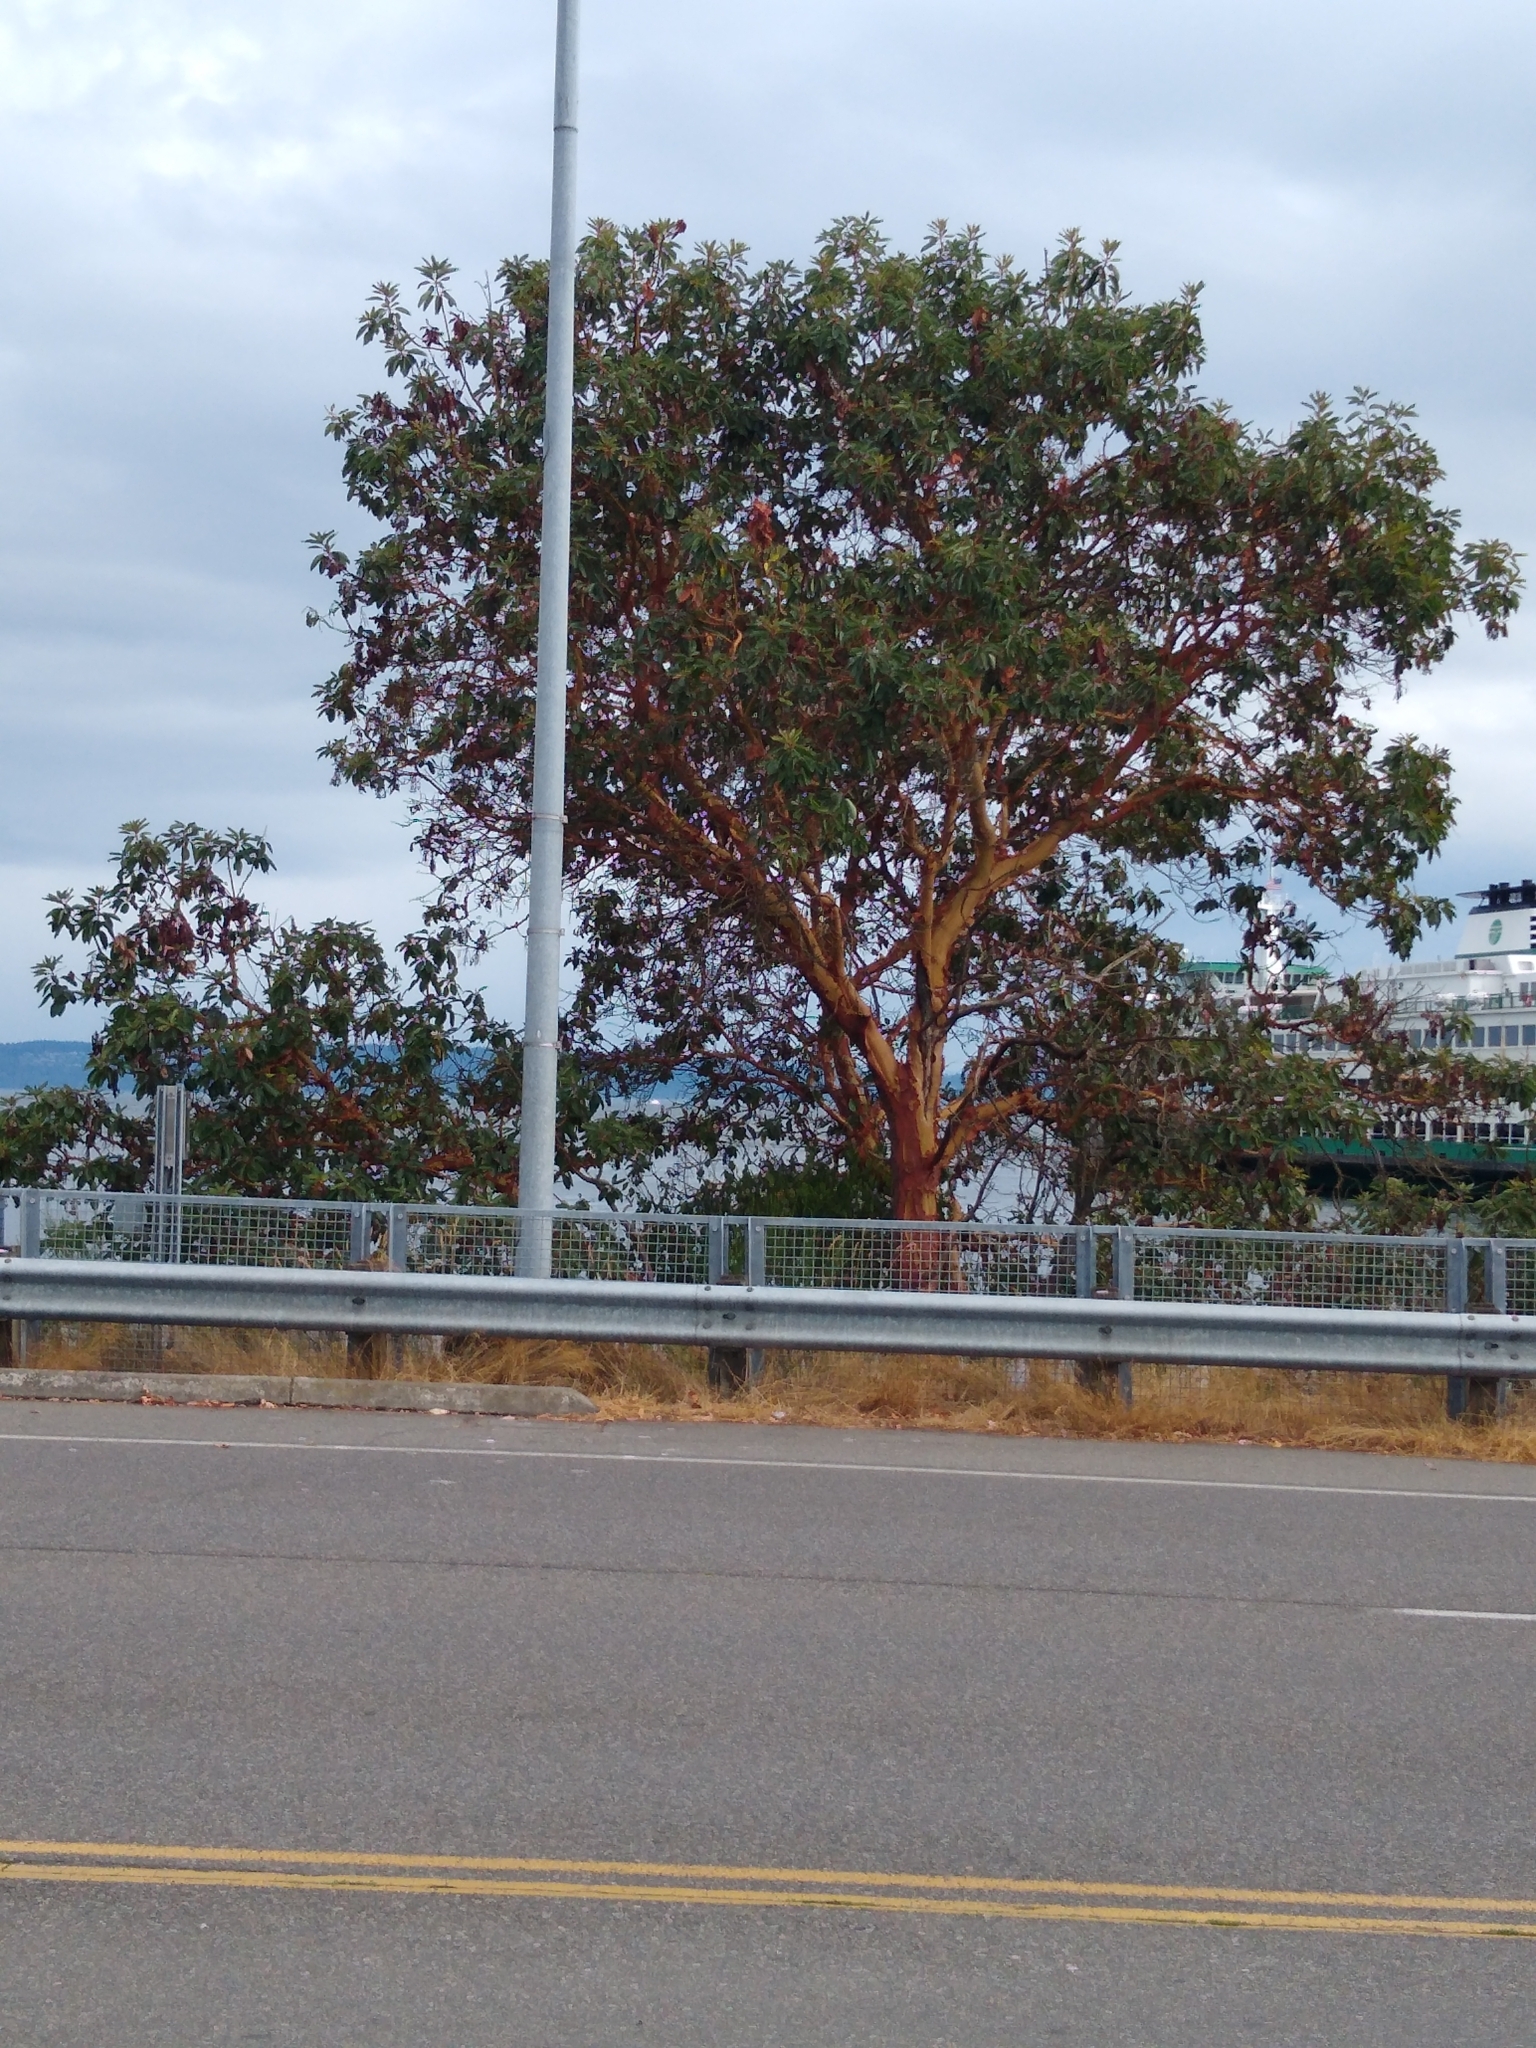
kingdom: Plantae
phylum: Tracheophyta
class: Magnoliopsida
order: Ericales
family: Ericaceae
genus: Arbutus
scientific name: Arbutus menziesii
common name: Pacific madrone
